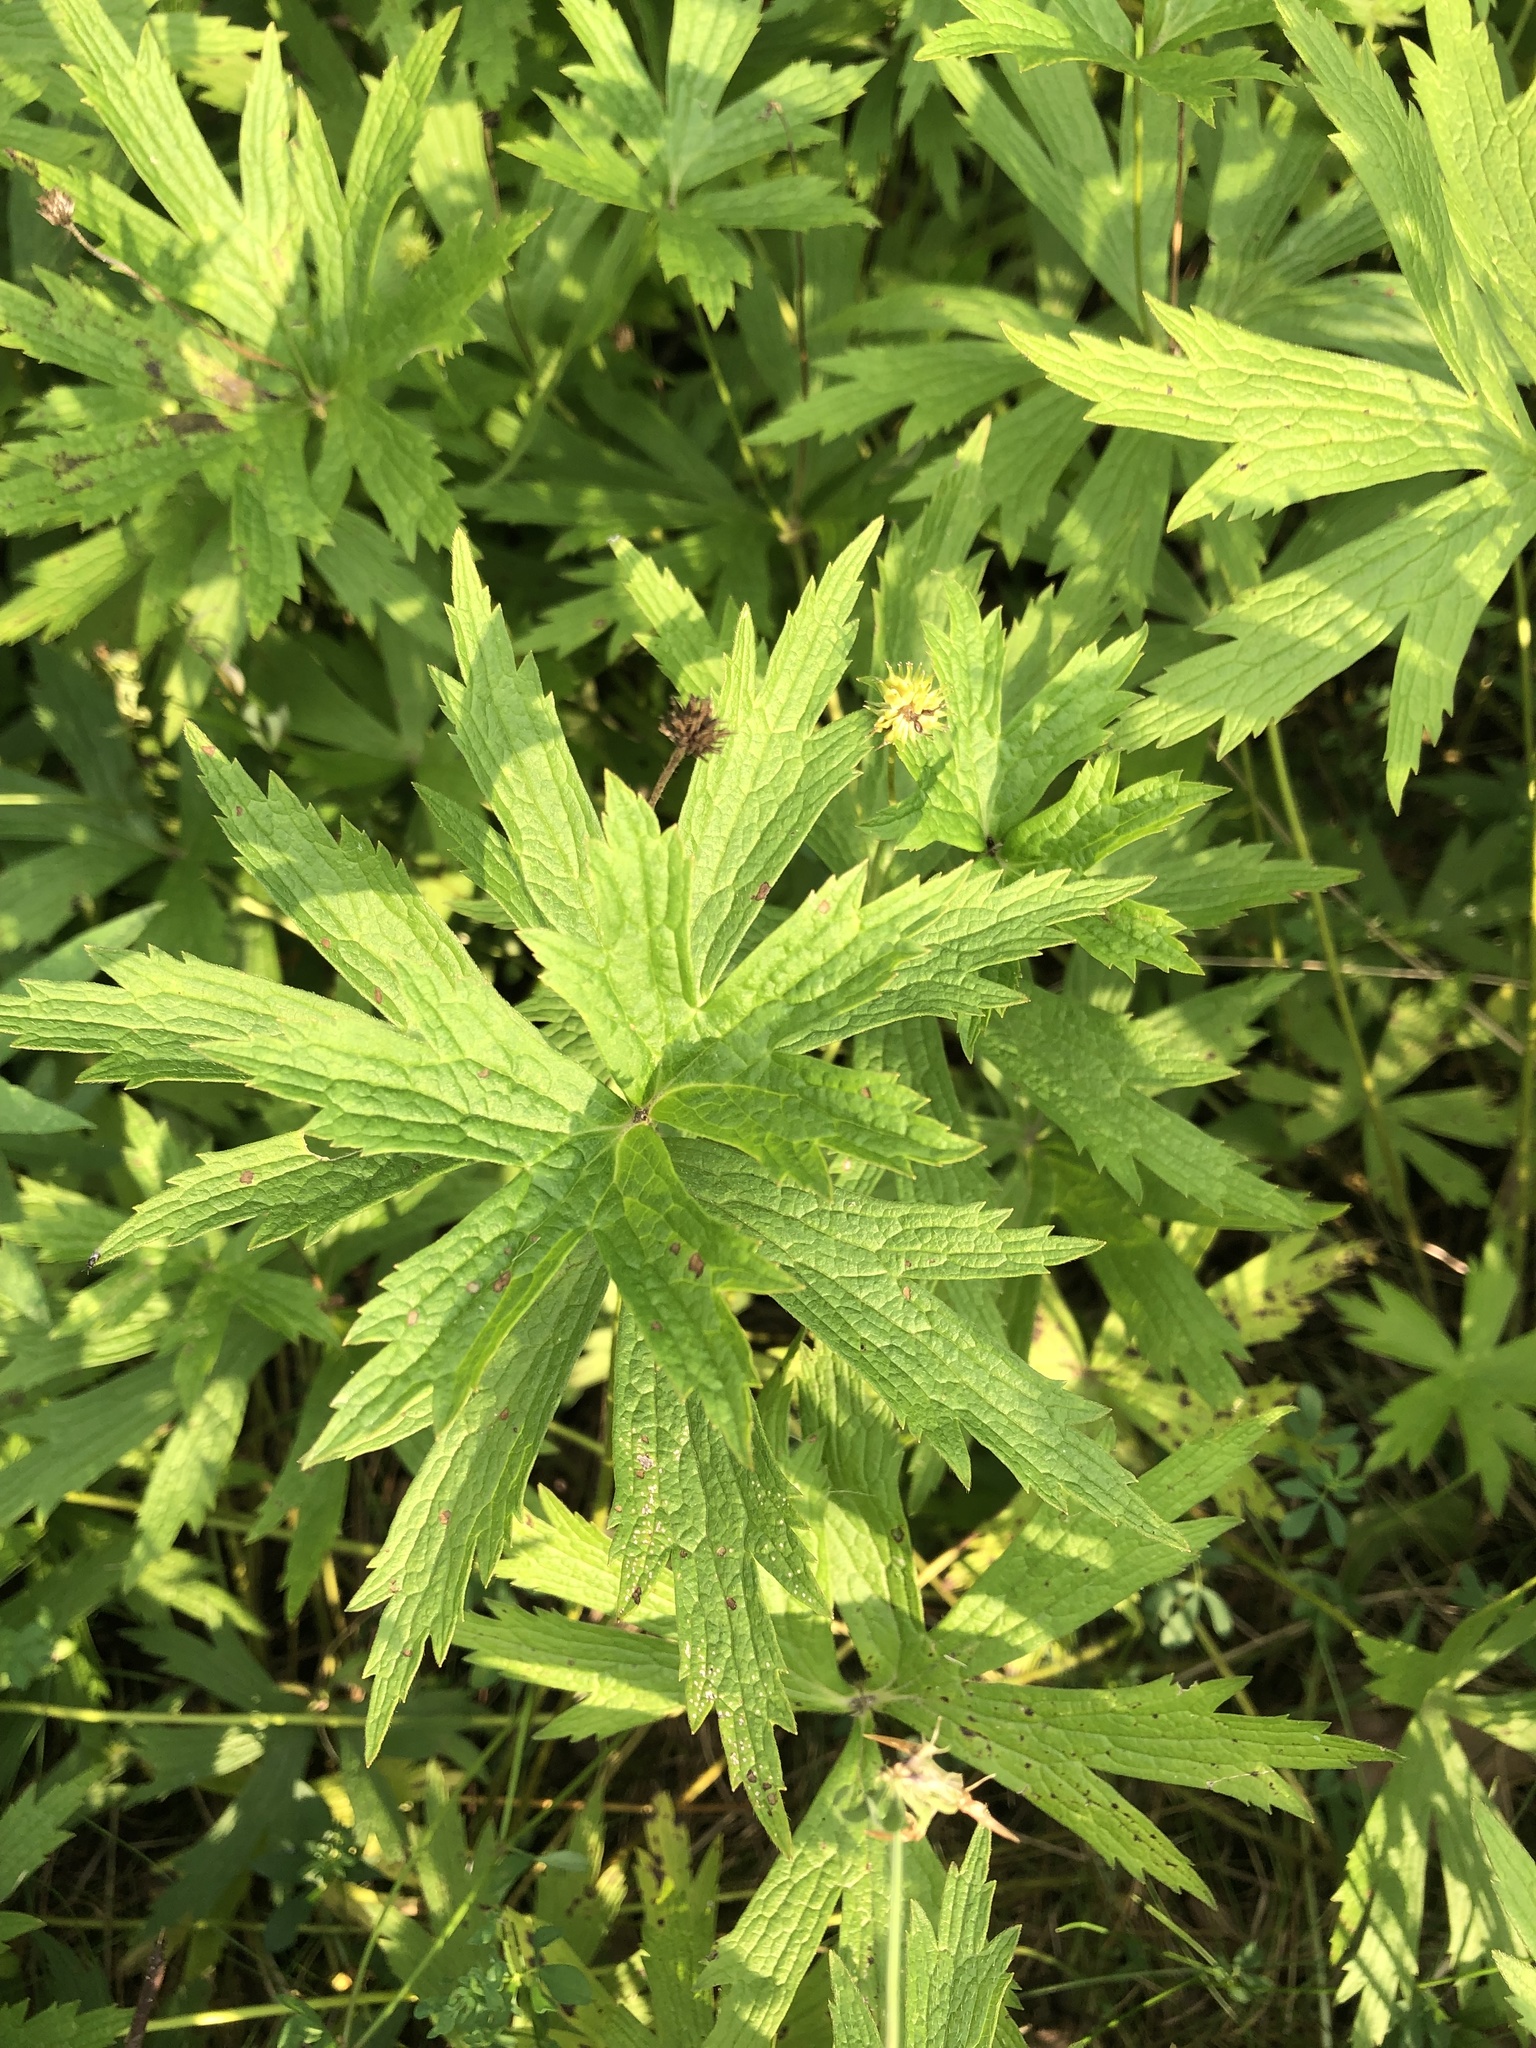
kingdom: Plantae
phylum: Tracheophyta
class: Magnoliopsida
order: Ranunculales
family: Ranunculaceae
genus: Anemonastrum
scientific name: Anemonastrum canadense
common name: Canada anemone
